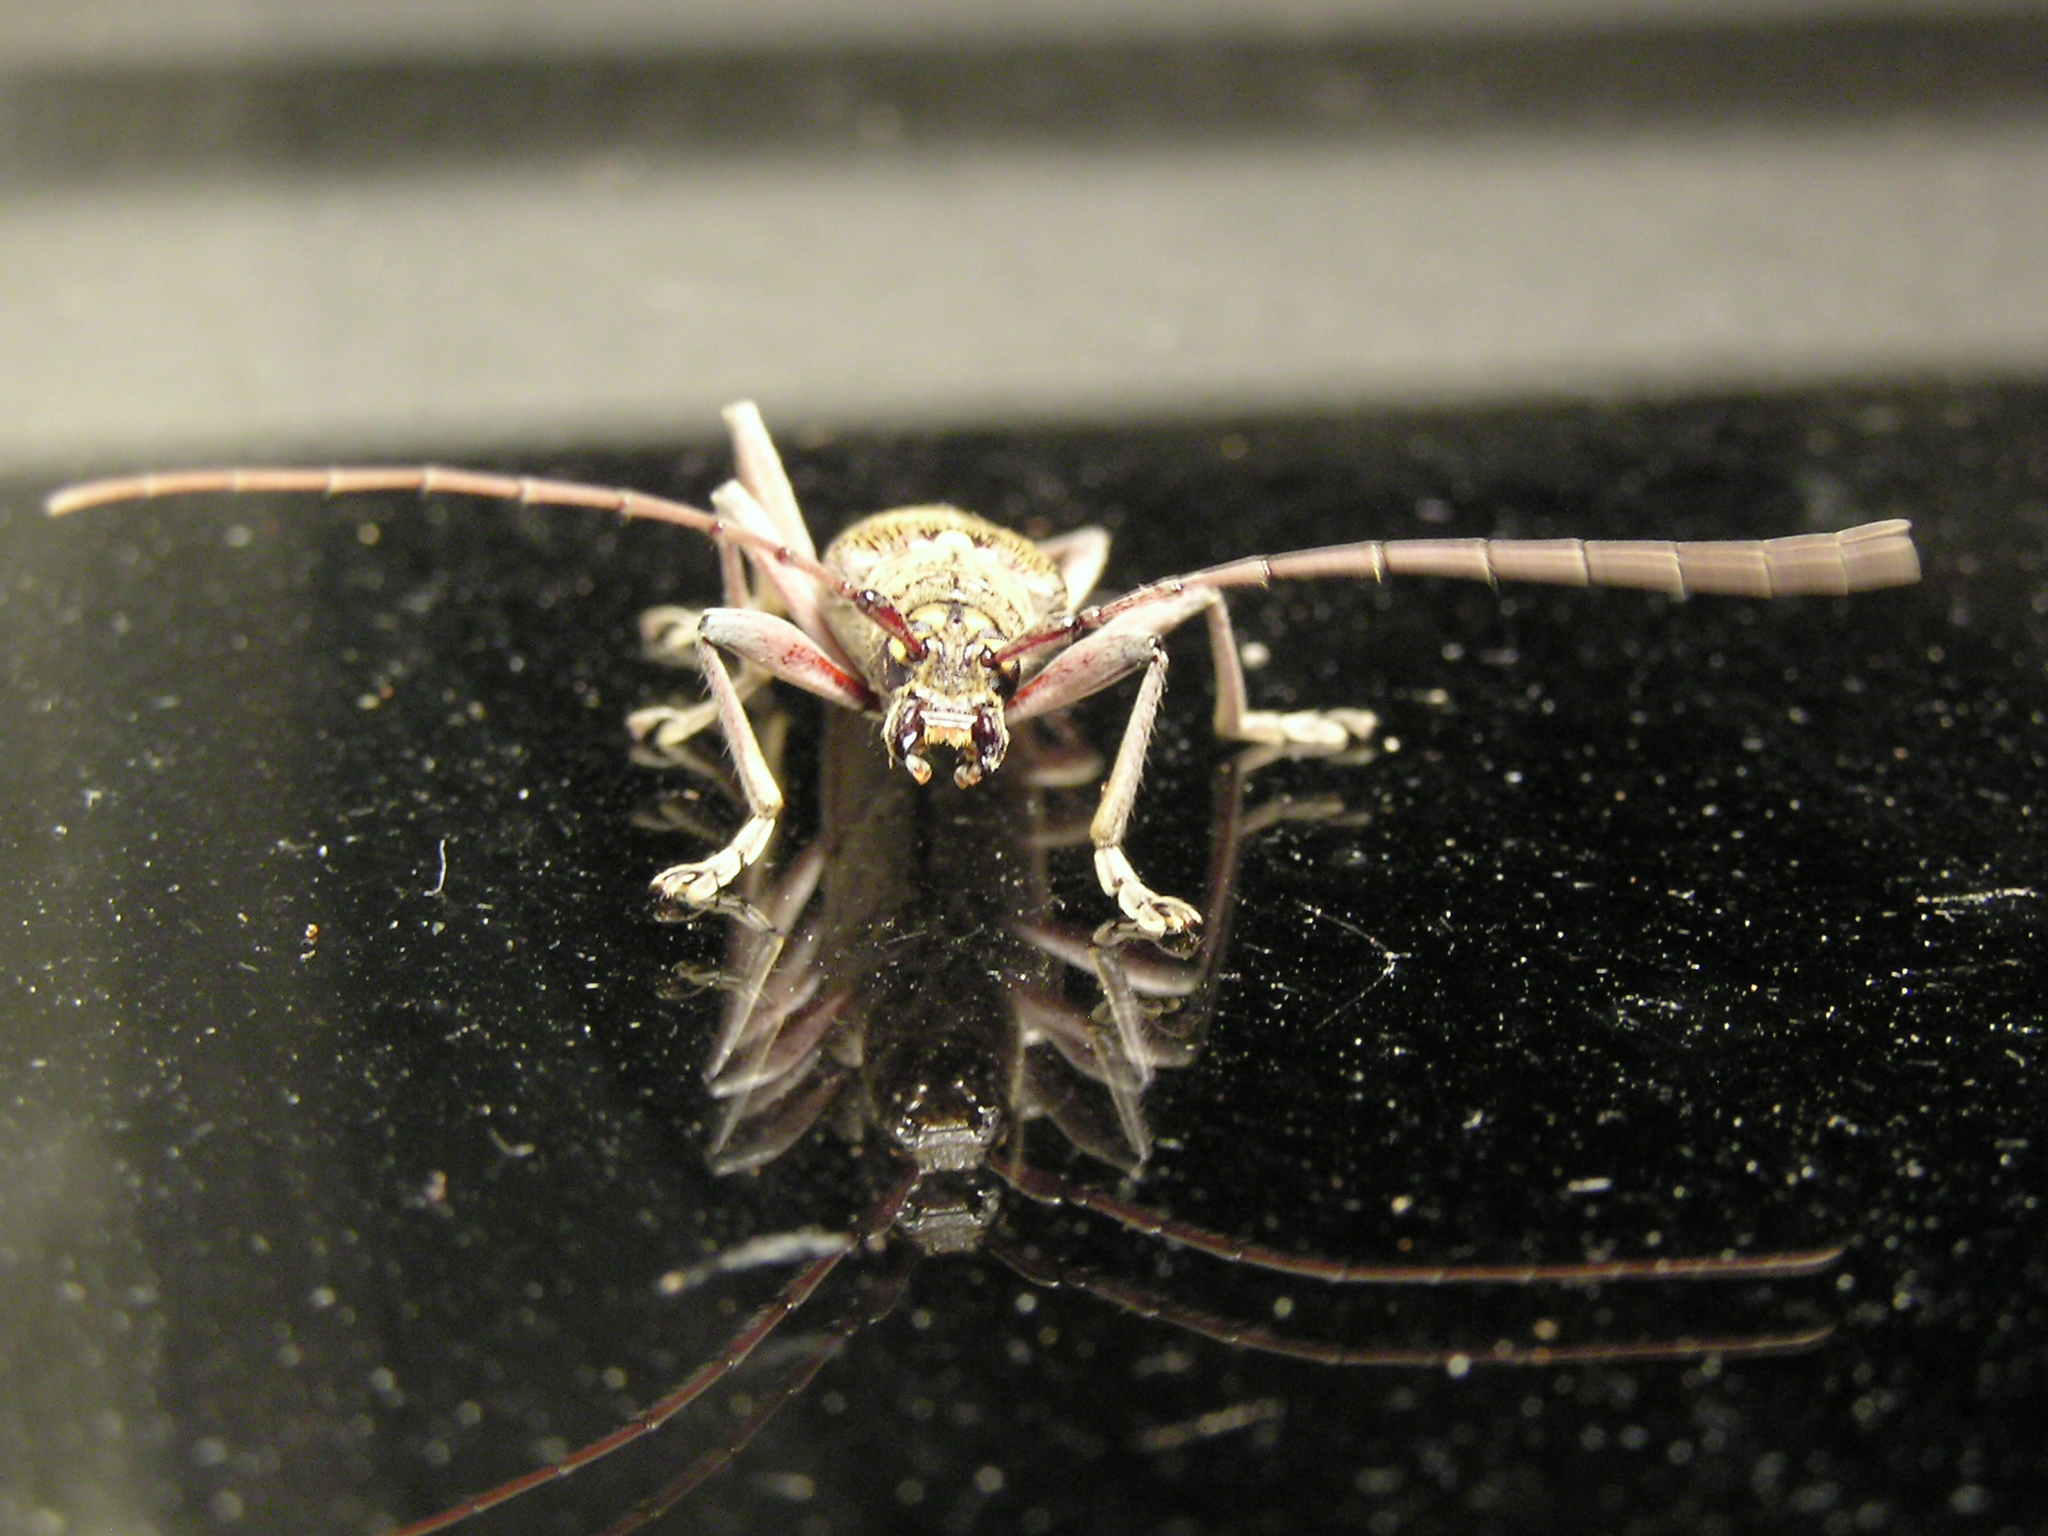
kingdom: Animalia
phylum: Arthropoda
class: Insecta
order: Coleoptera
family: Cerambycidae
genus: Oemona
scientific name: Oemona hirta
